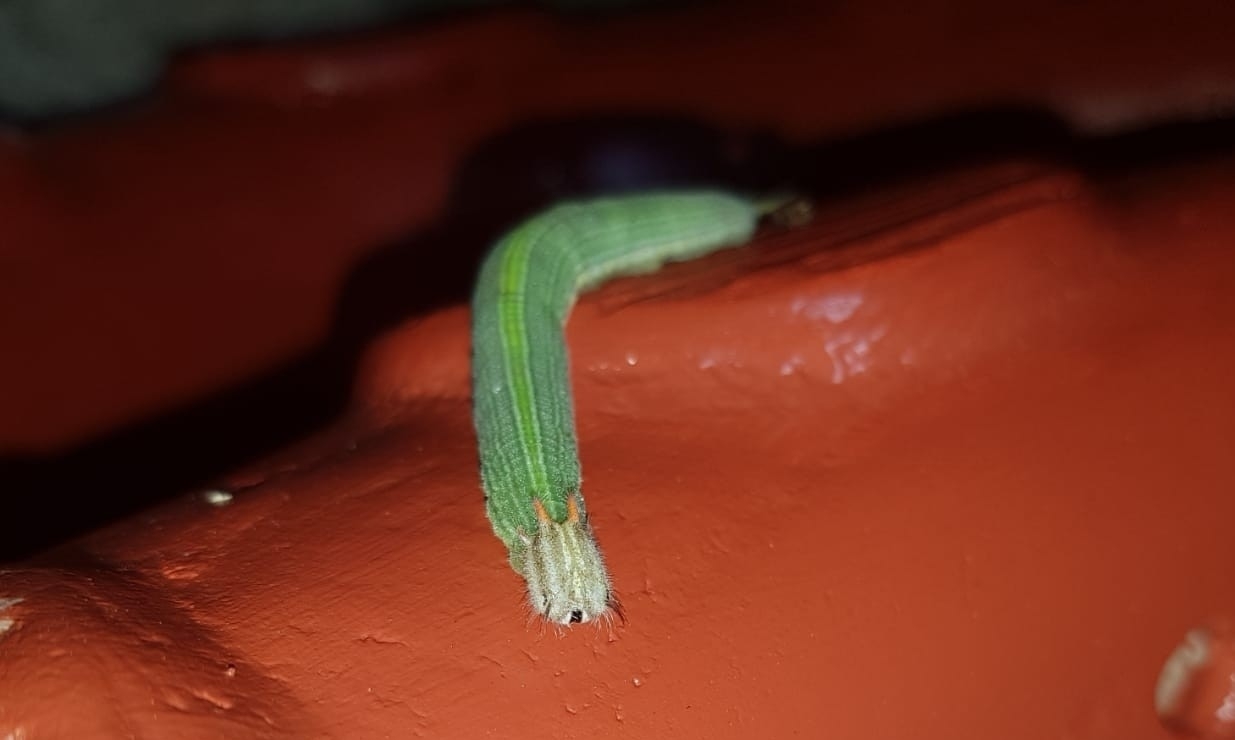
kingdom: Animalia
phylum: Arthropoda
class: Insecta
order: Lepidoptera
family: Nymphalidae
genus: Opsiphanes
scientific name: Opsiphanes cassina
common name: Split-banded owl-butterfly
